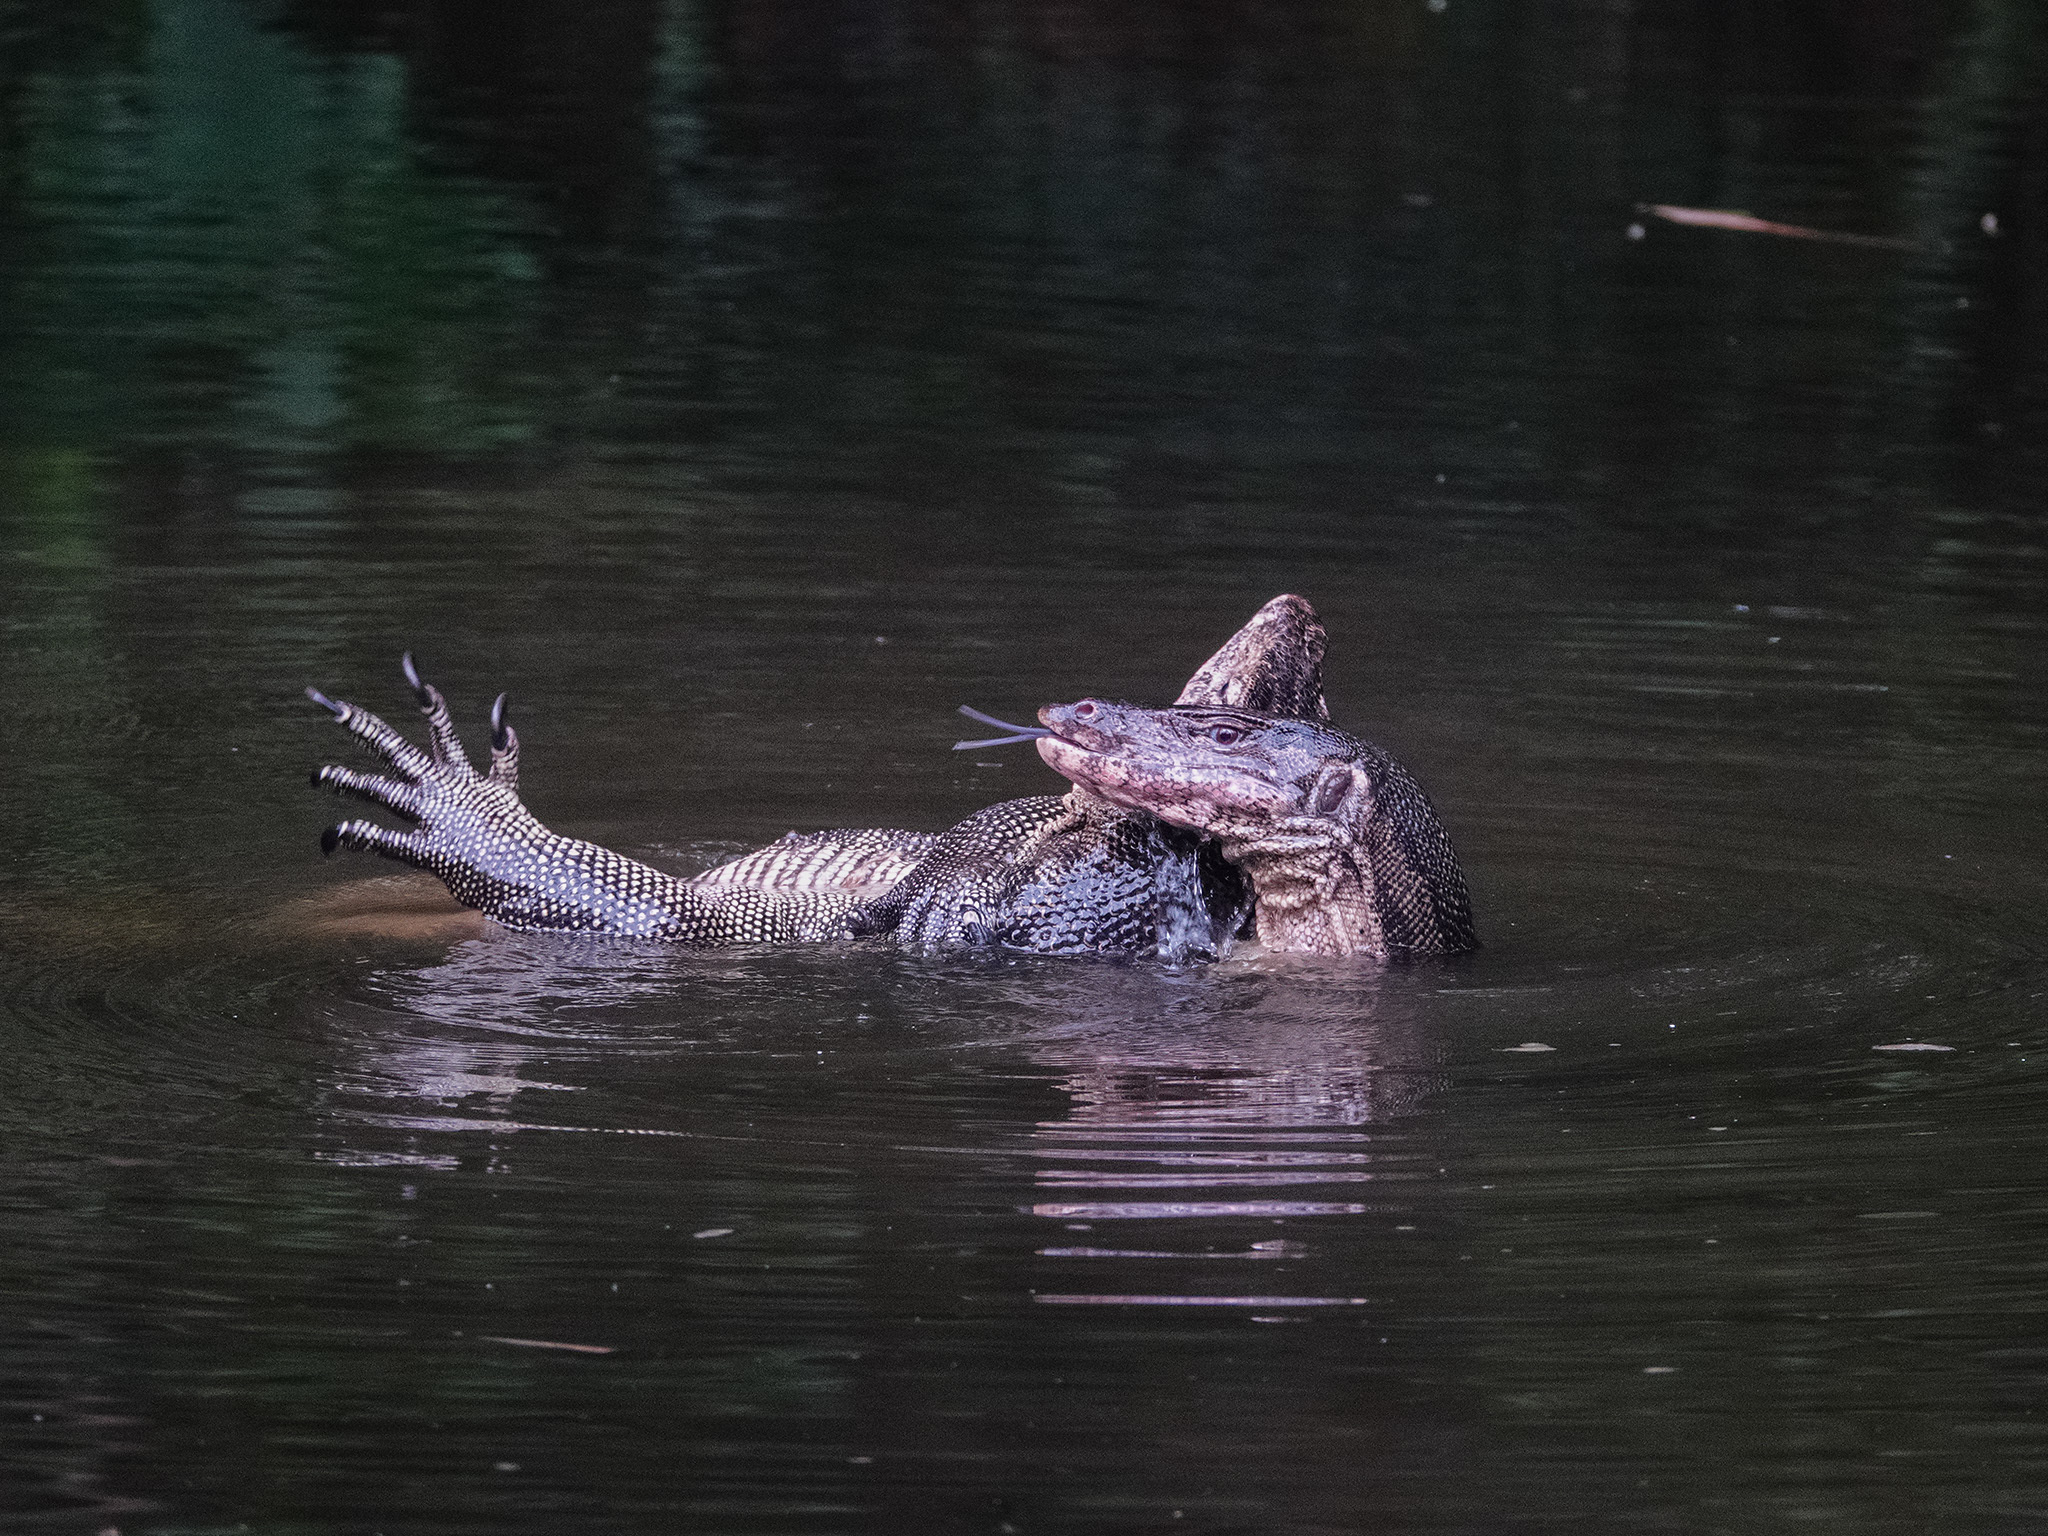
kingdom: Animalia
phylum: Chordata
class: Squamata
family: Varanidae
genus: Varanus
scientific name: Varanus salvator
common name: Common water monitor
